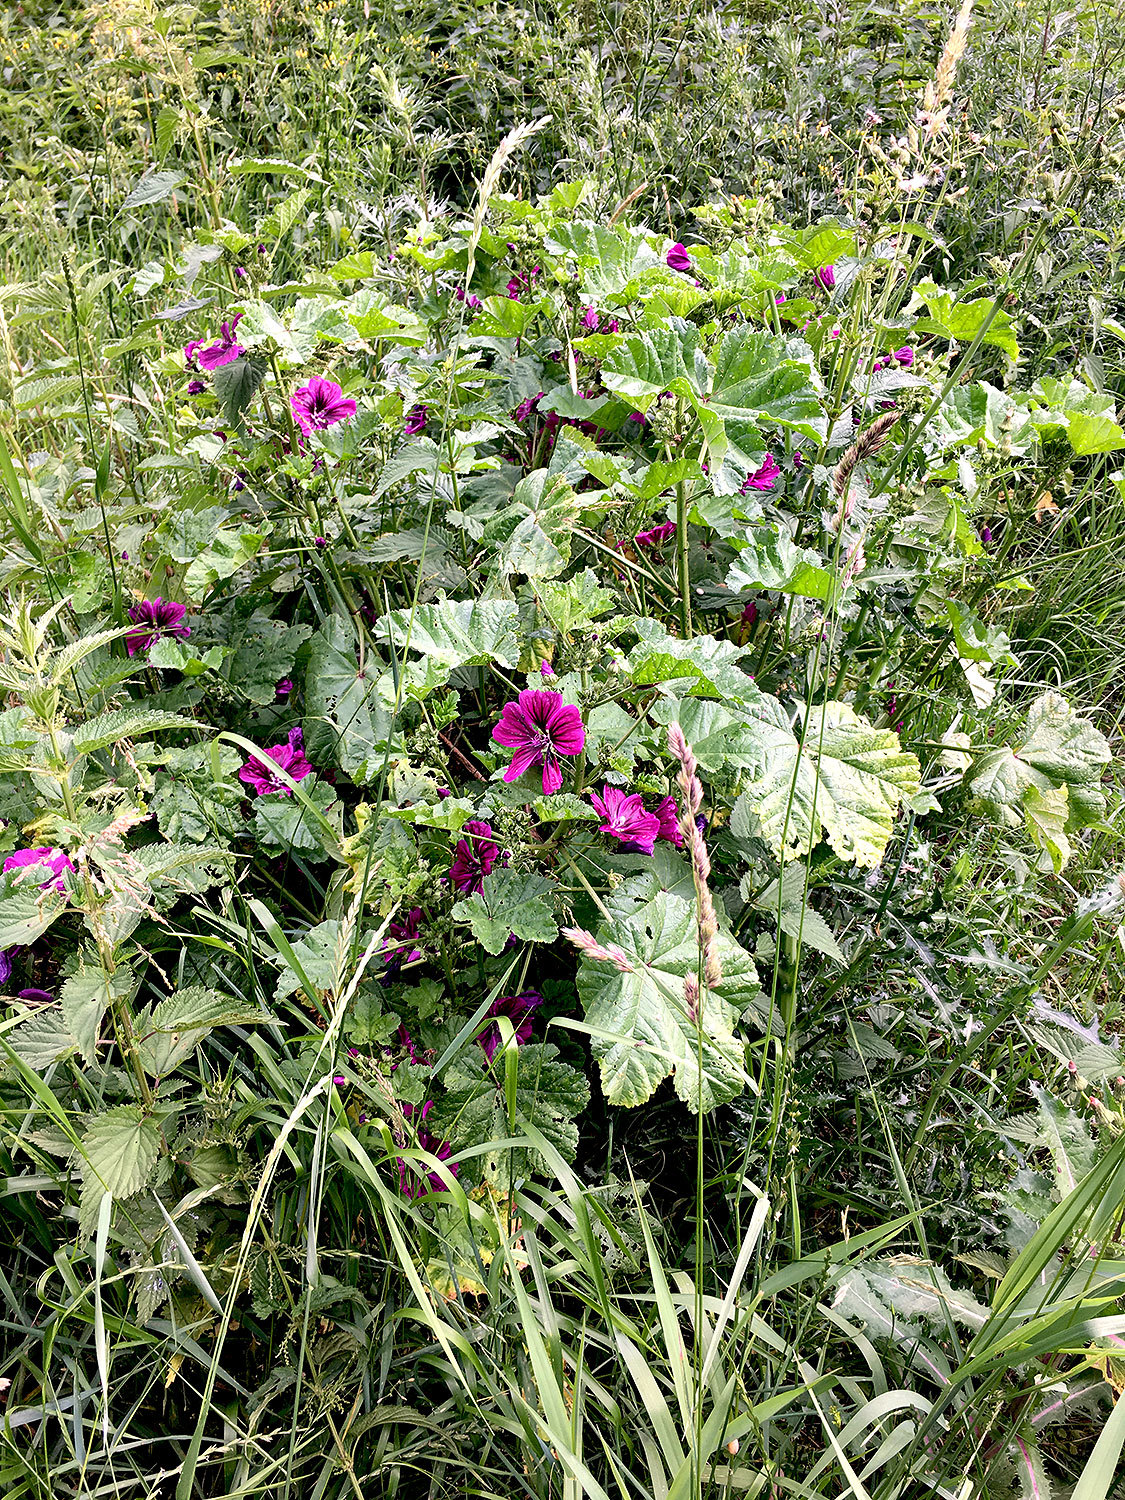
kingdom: Plantae
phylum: Tracheophyta
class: Magnoliopsida
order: Malvales
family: Malvaceae
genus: Malva
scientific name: Malva sylvestris
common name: Common mallow
